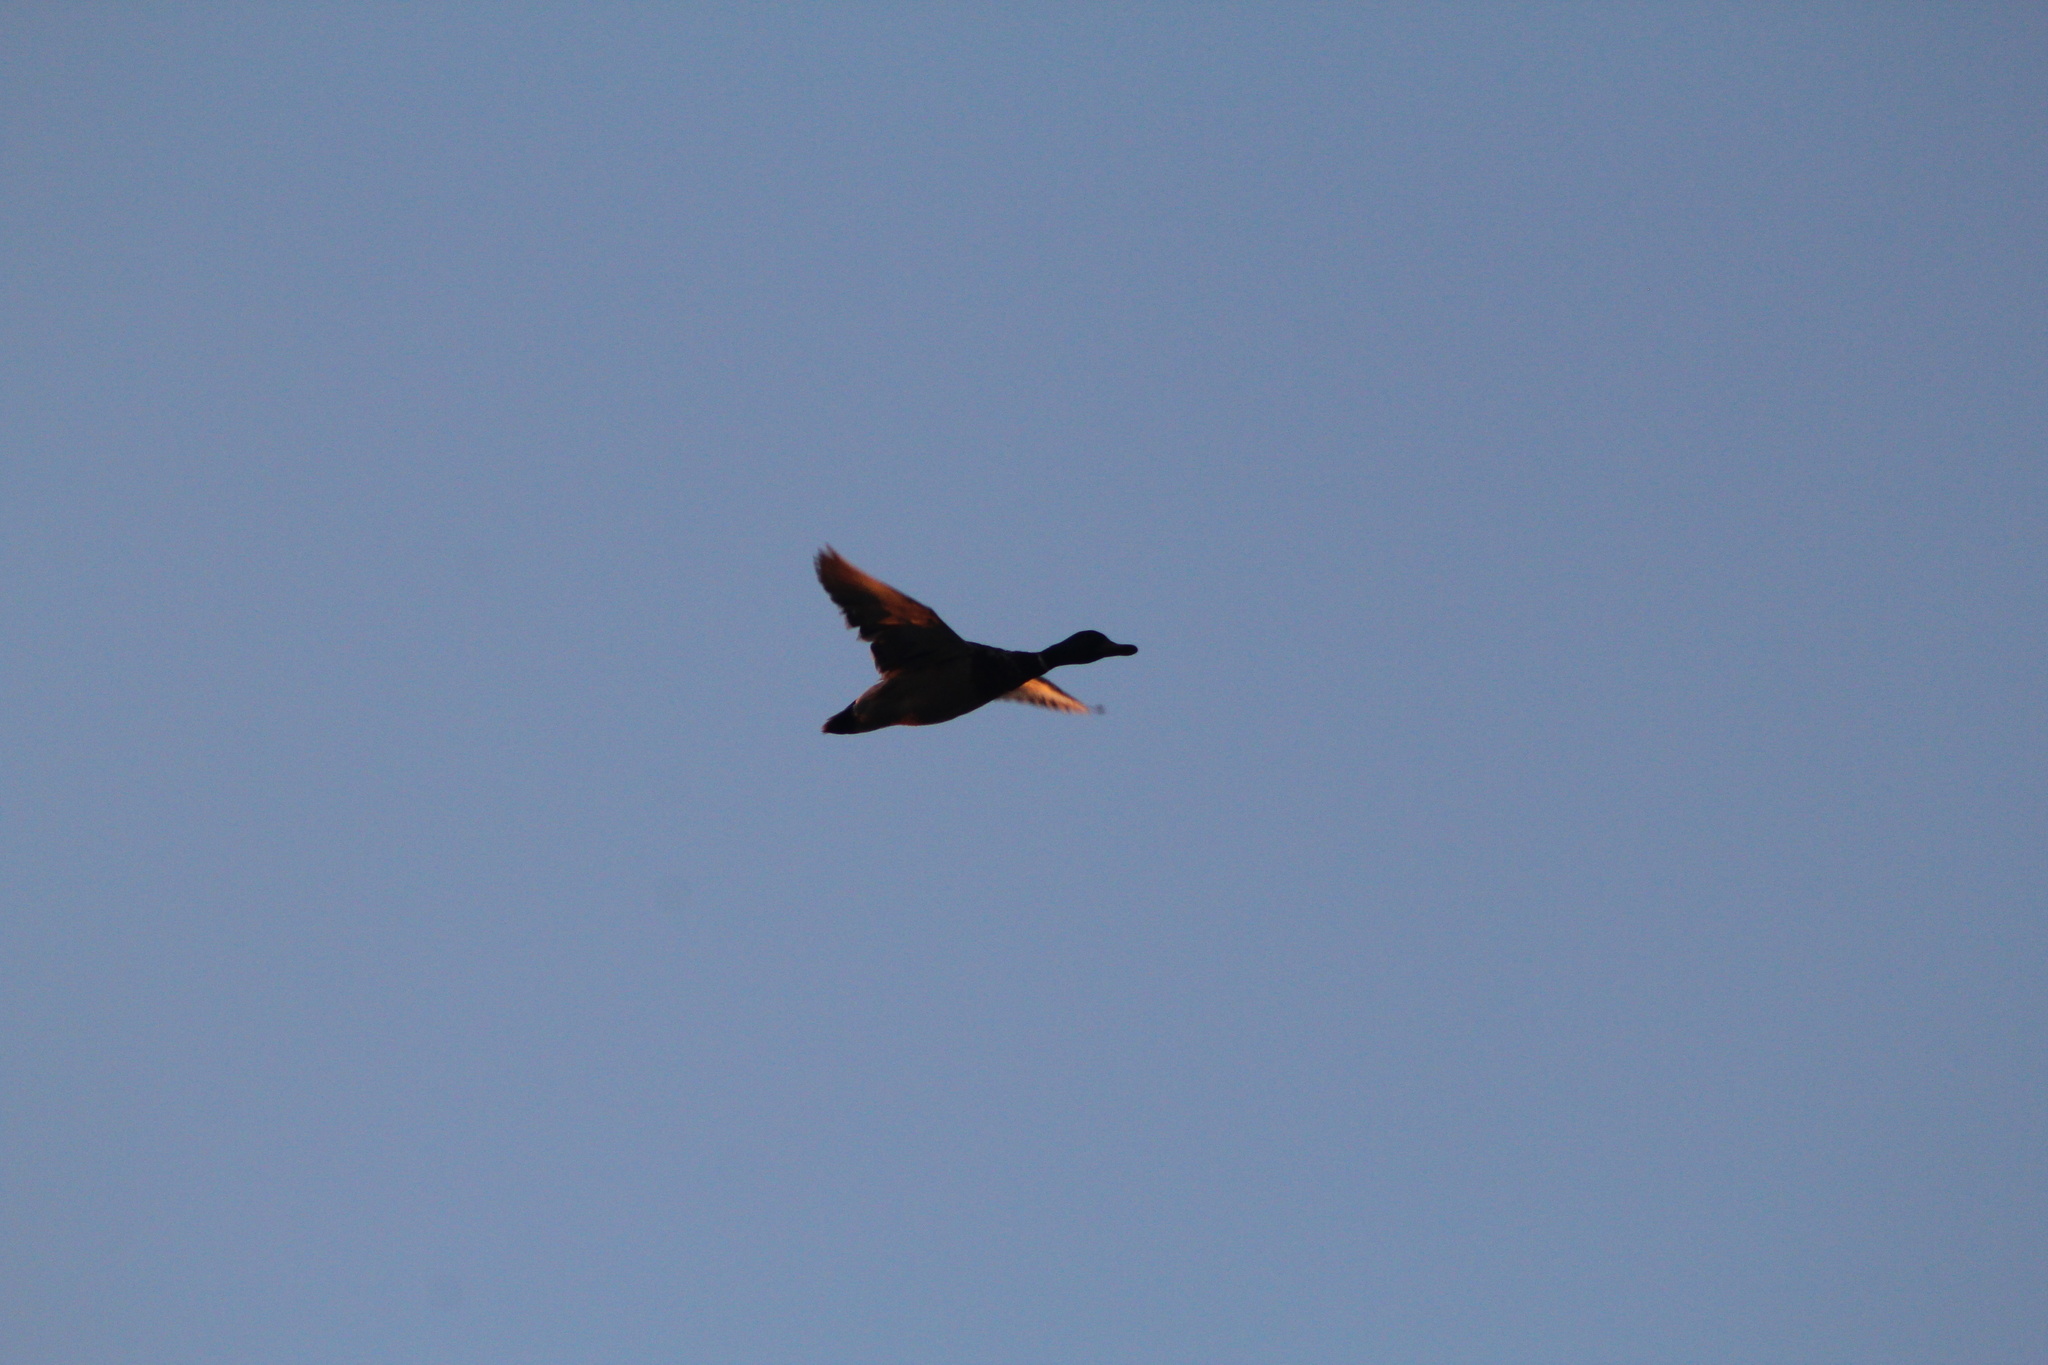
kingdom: Animalia
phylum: Chordata
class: Aves
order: Anseriformes
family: Anatidae
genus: Anas
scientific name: Anas platyrhynchos
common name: Mallard
